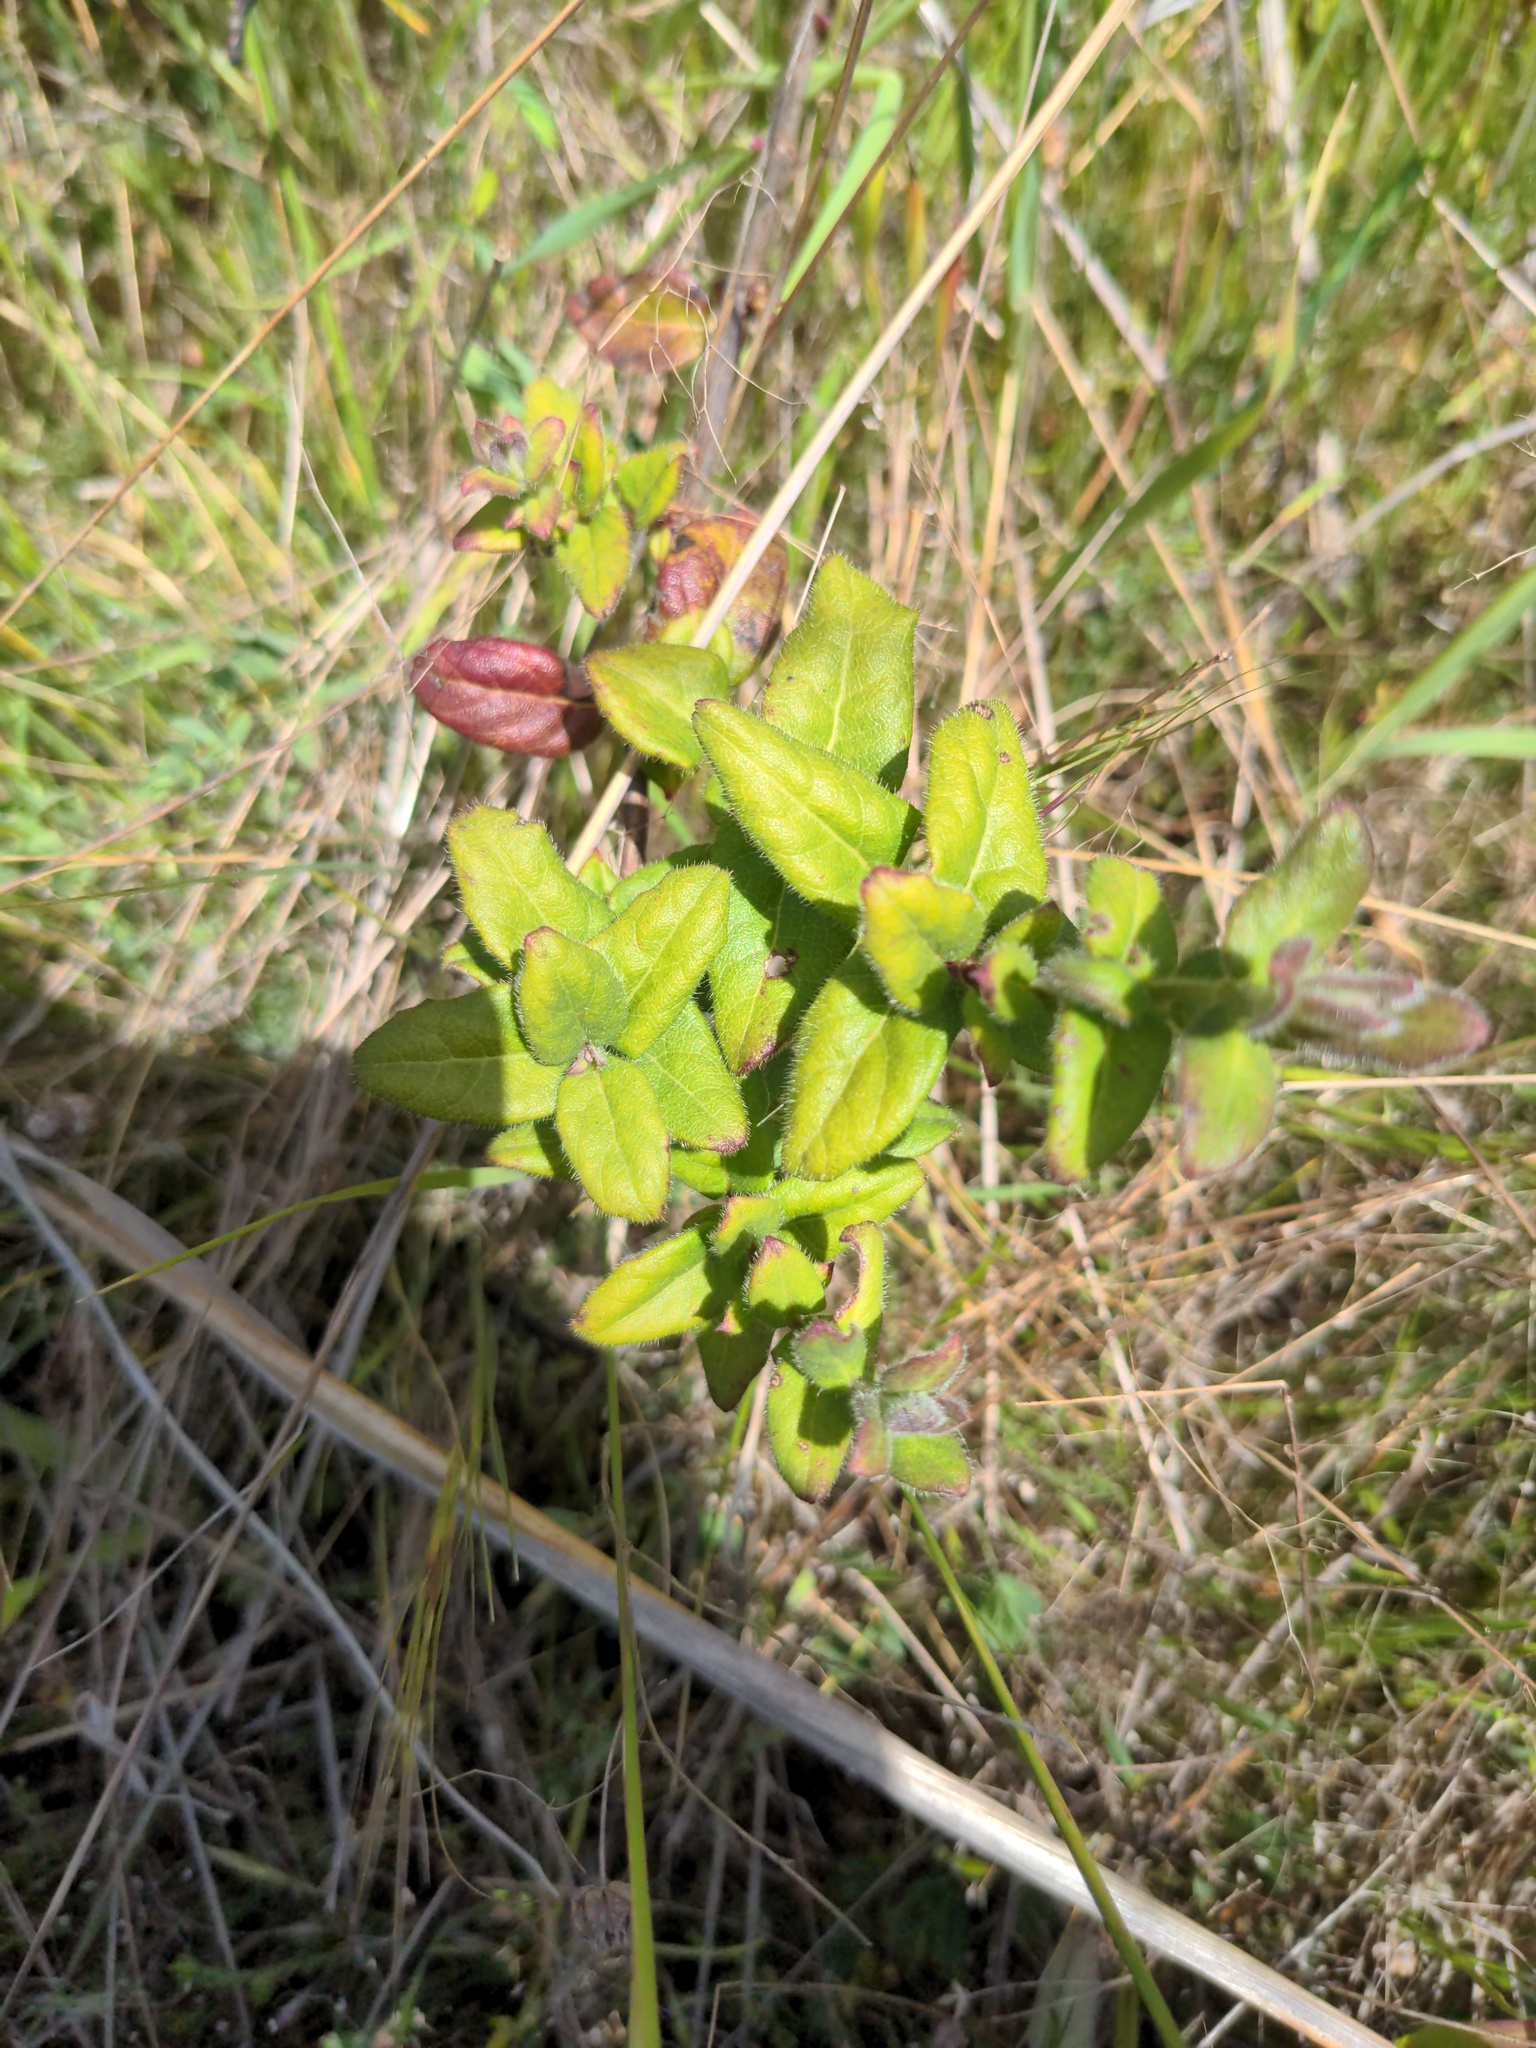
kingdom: Plantae
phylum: Tracheophyta
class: Magnoliopsida
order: Dipsacales
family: Caprifoliaceae
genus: Lonicera
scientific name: Lonicera hispidula
